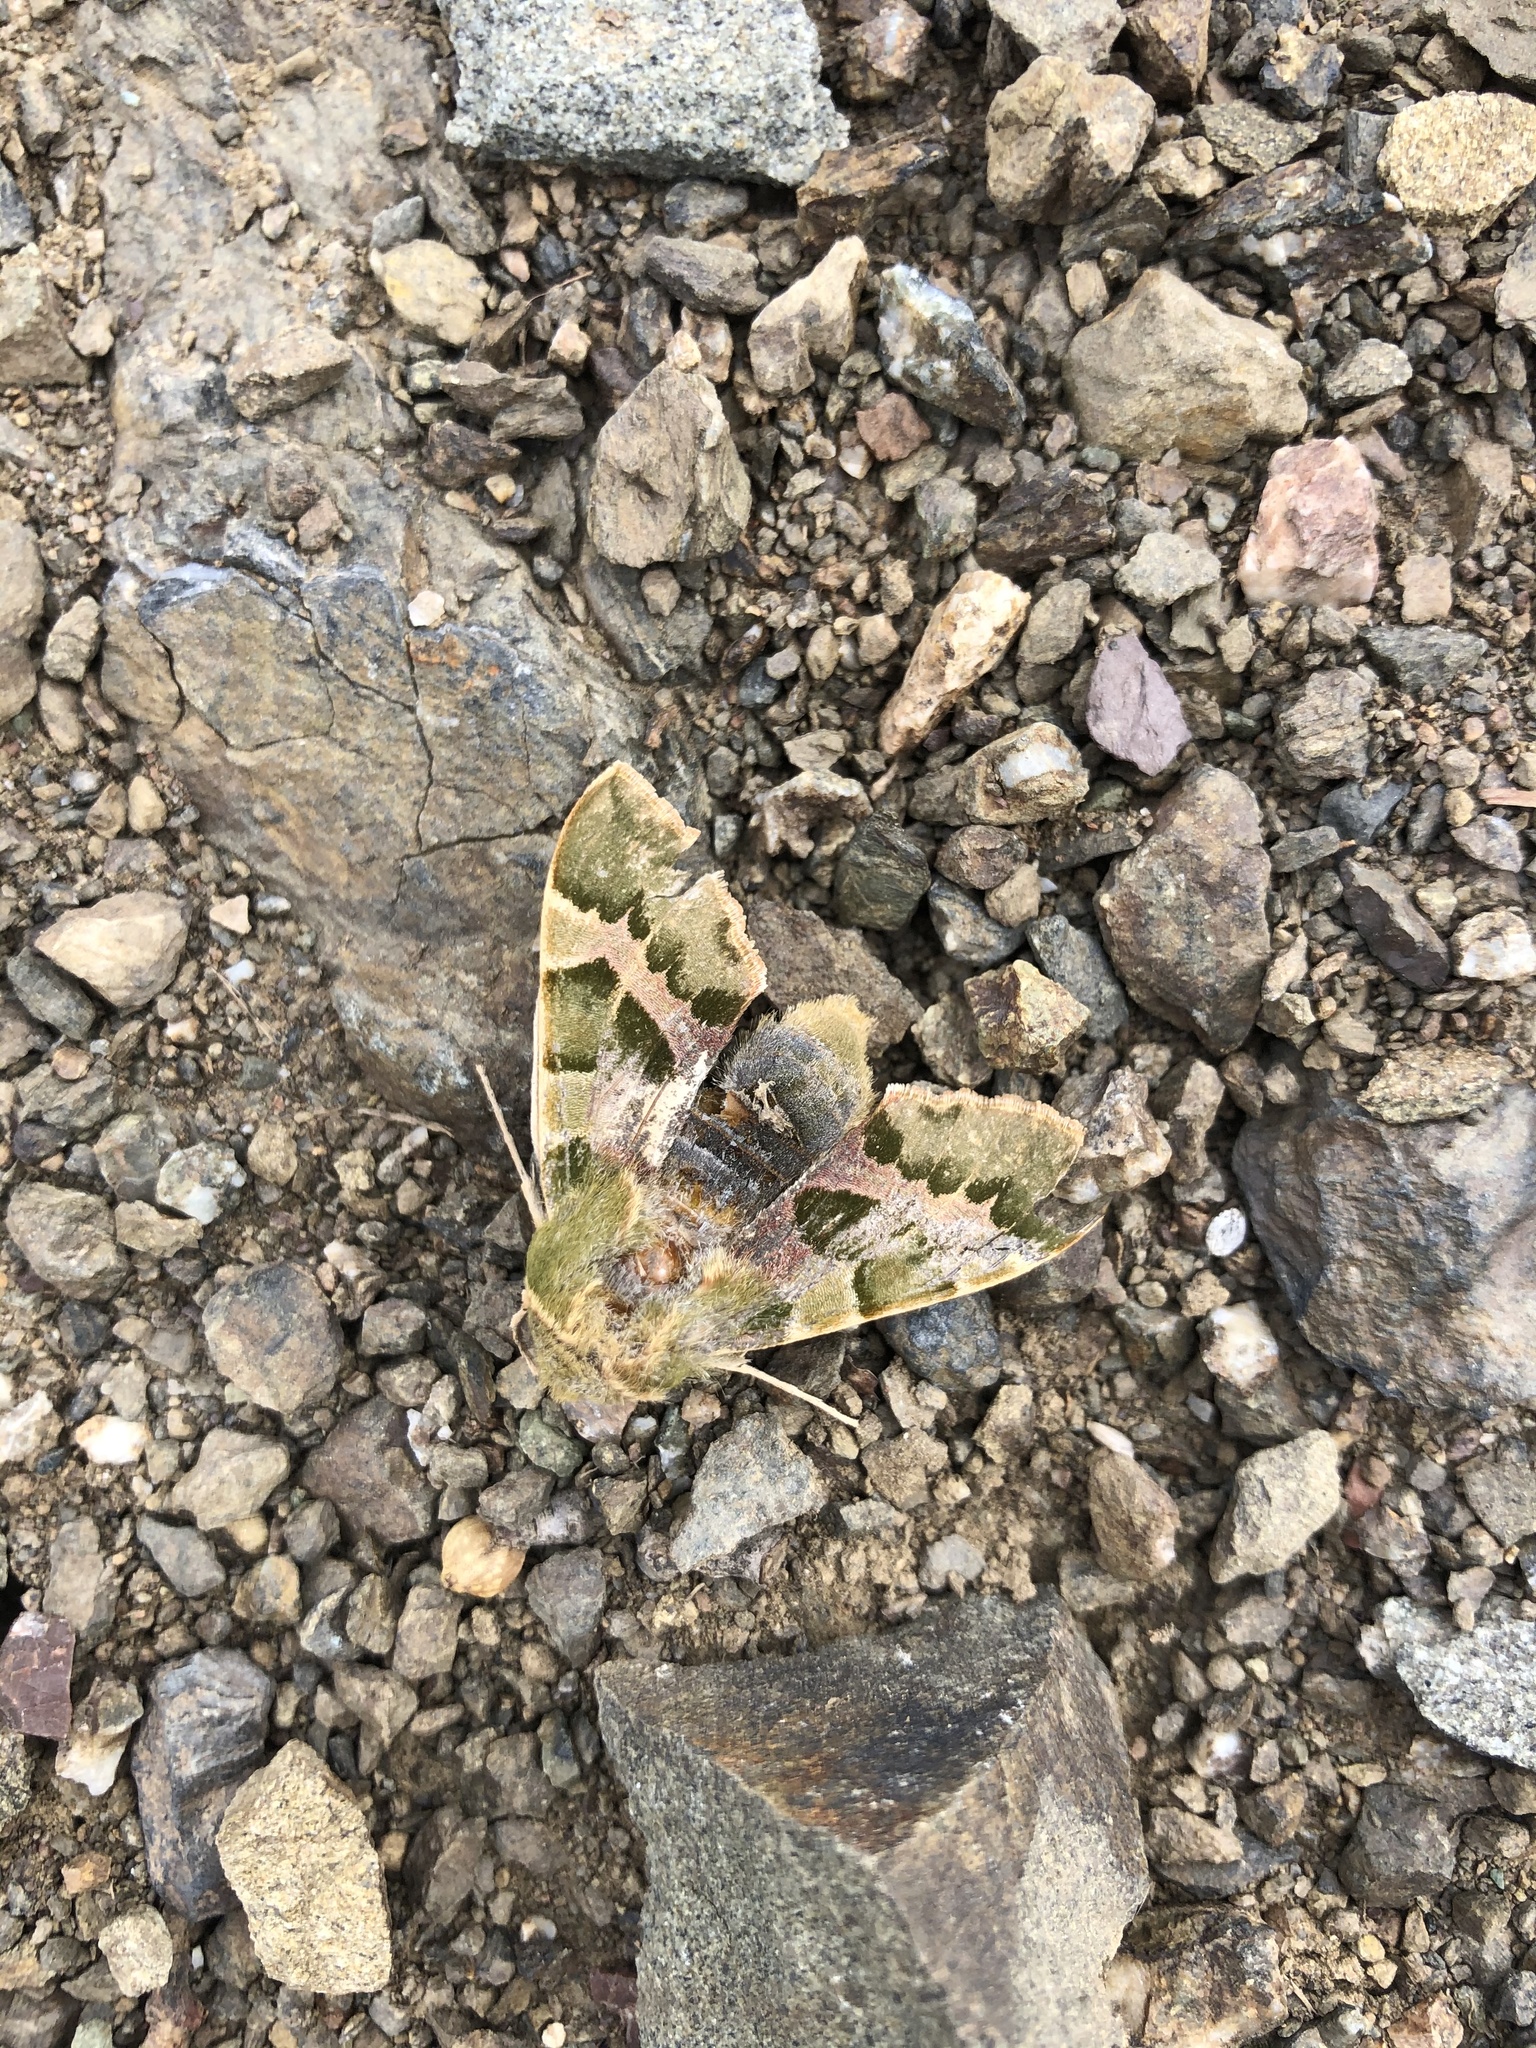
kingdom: Animalia
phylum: Arthropoda
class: Insecta
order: Lepidoptera
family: Sphingidae
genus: Proserpinus
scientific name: Proserpinus lucidus
